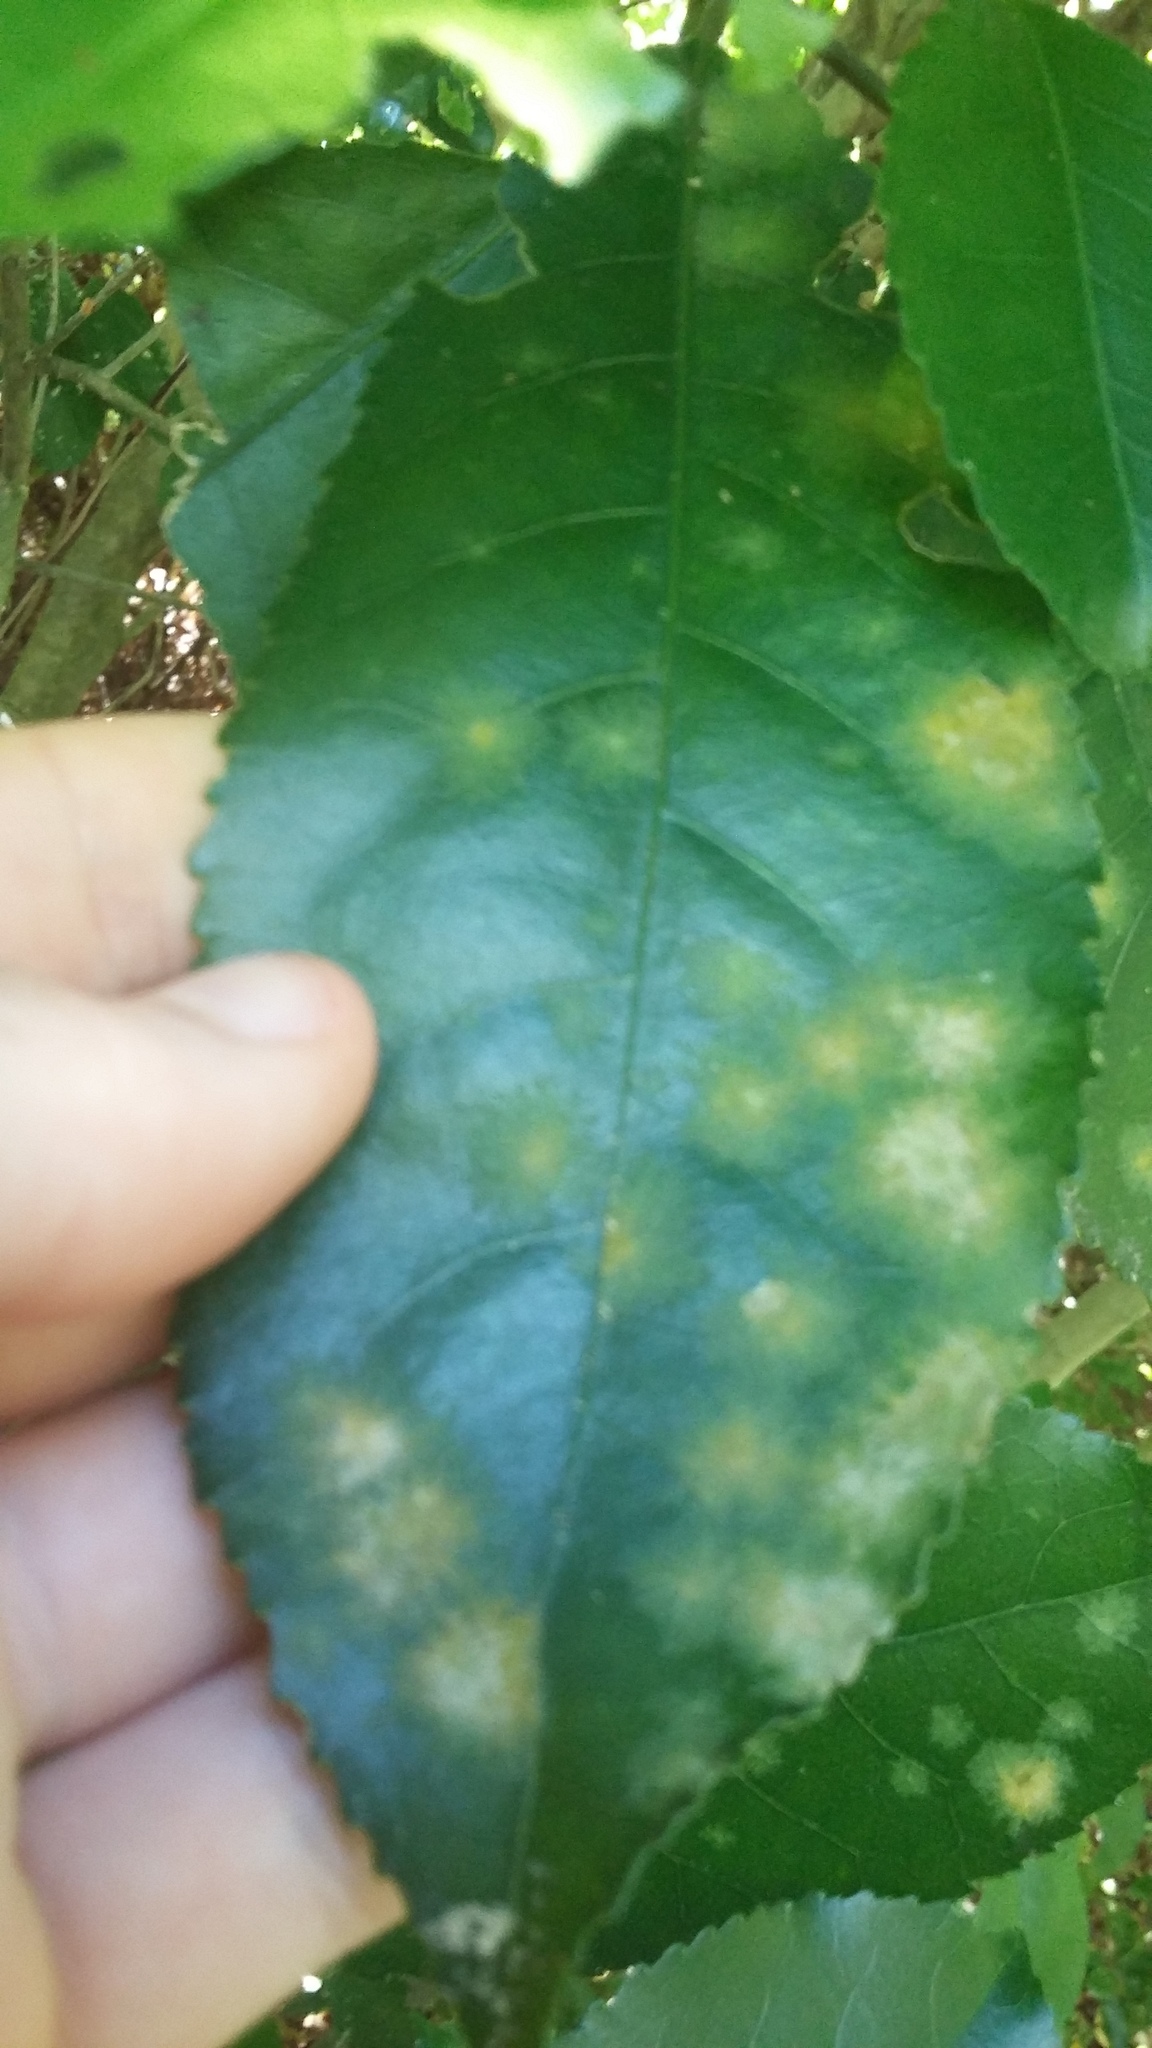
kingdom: Plantae
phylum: Chlorophyta
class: Ulvophyceae
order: Trentepohliales
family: Trentepohliaceae
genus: Cephaleuros
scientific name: Cephaleuros
